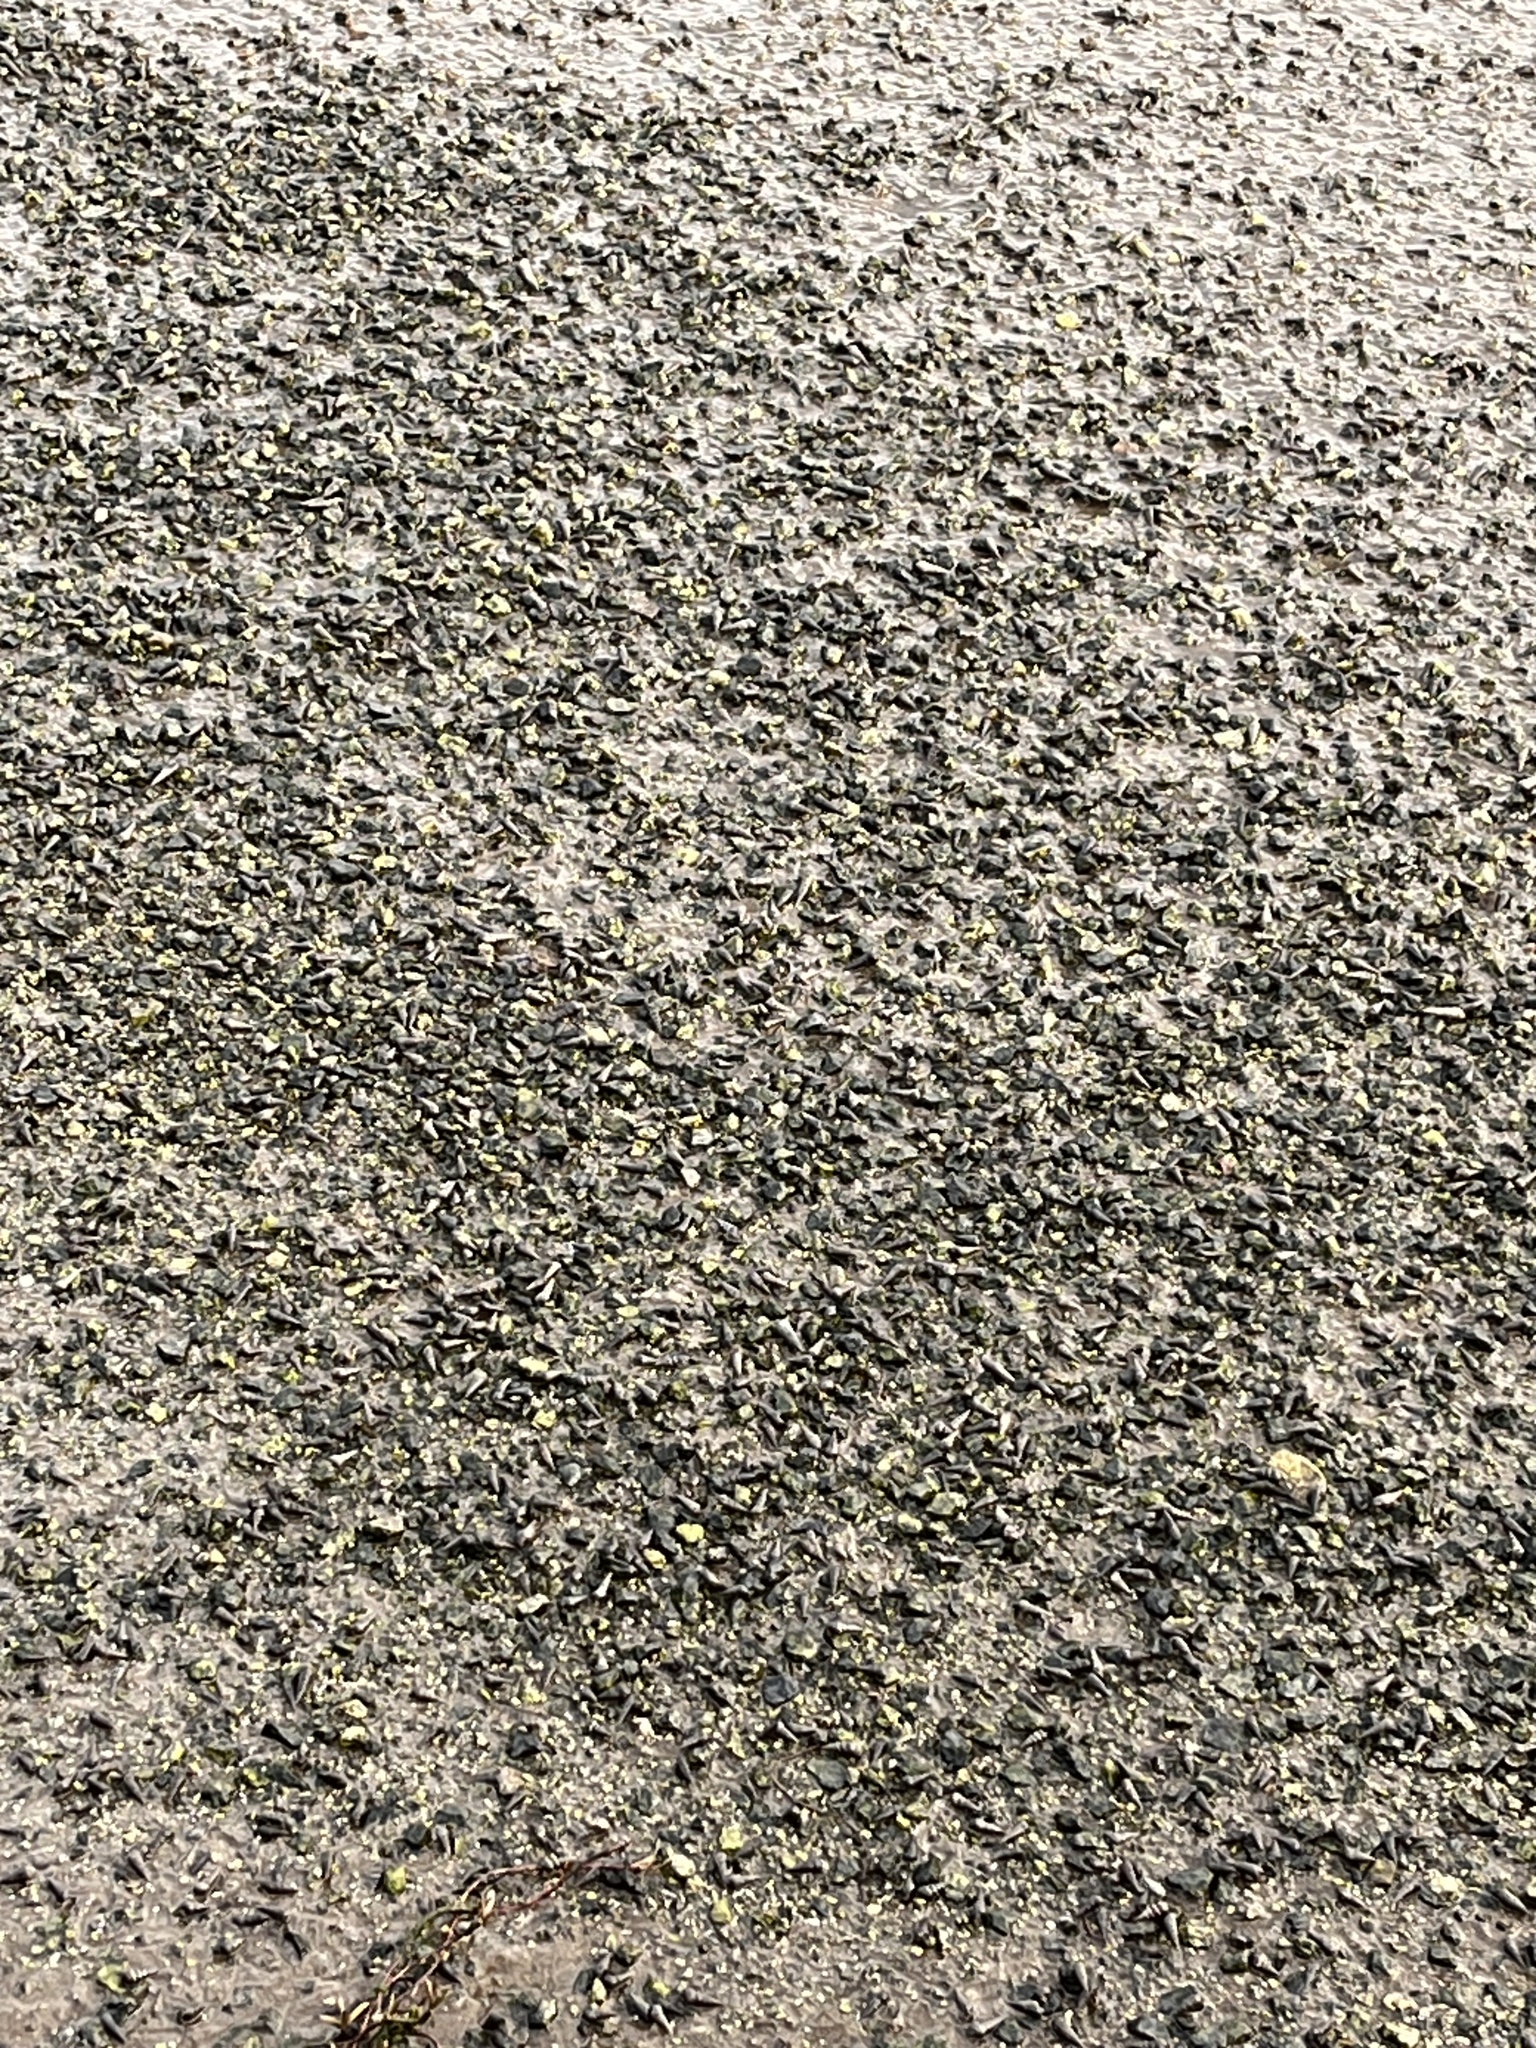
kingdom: Animalia
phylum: Mollusca
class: Gastropoda
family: Batillariidae
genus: Batillaria
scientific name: Batillaria attramentaria
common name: Japanese false cerith
